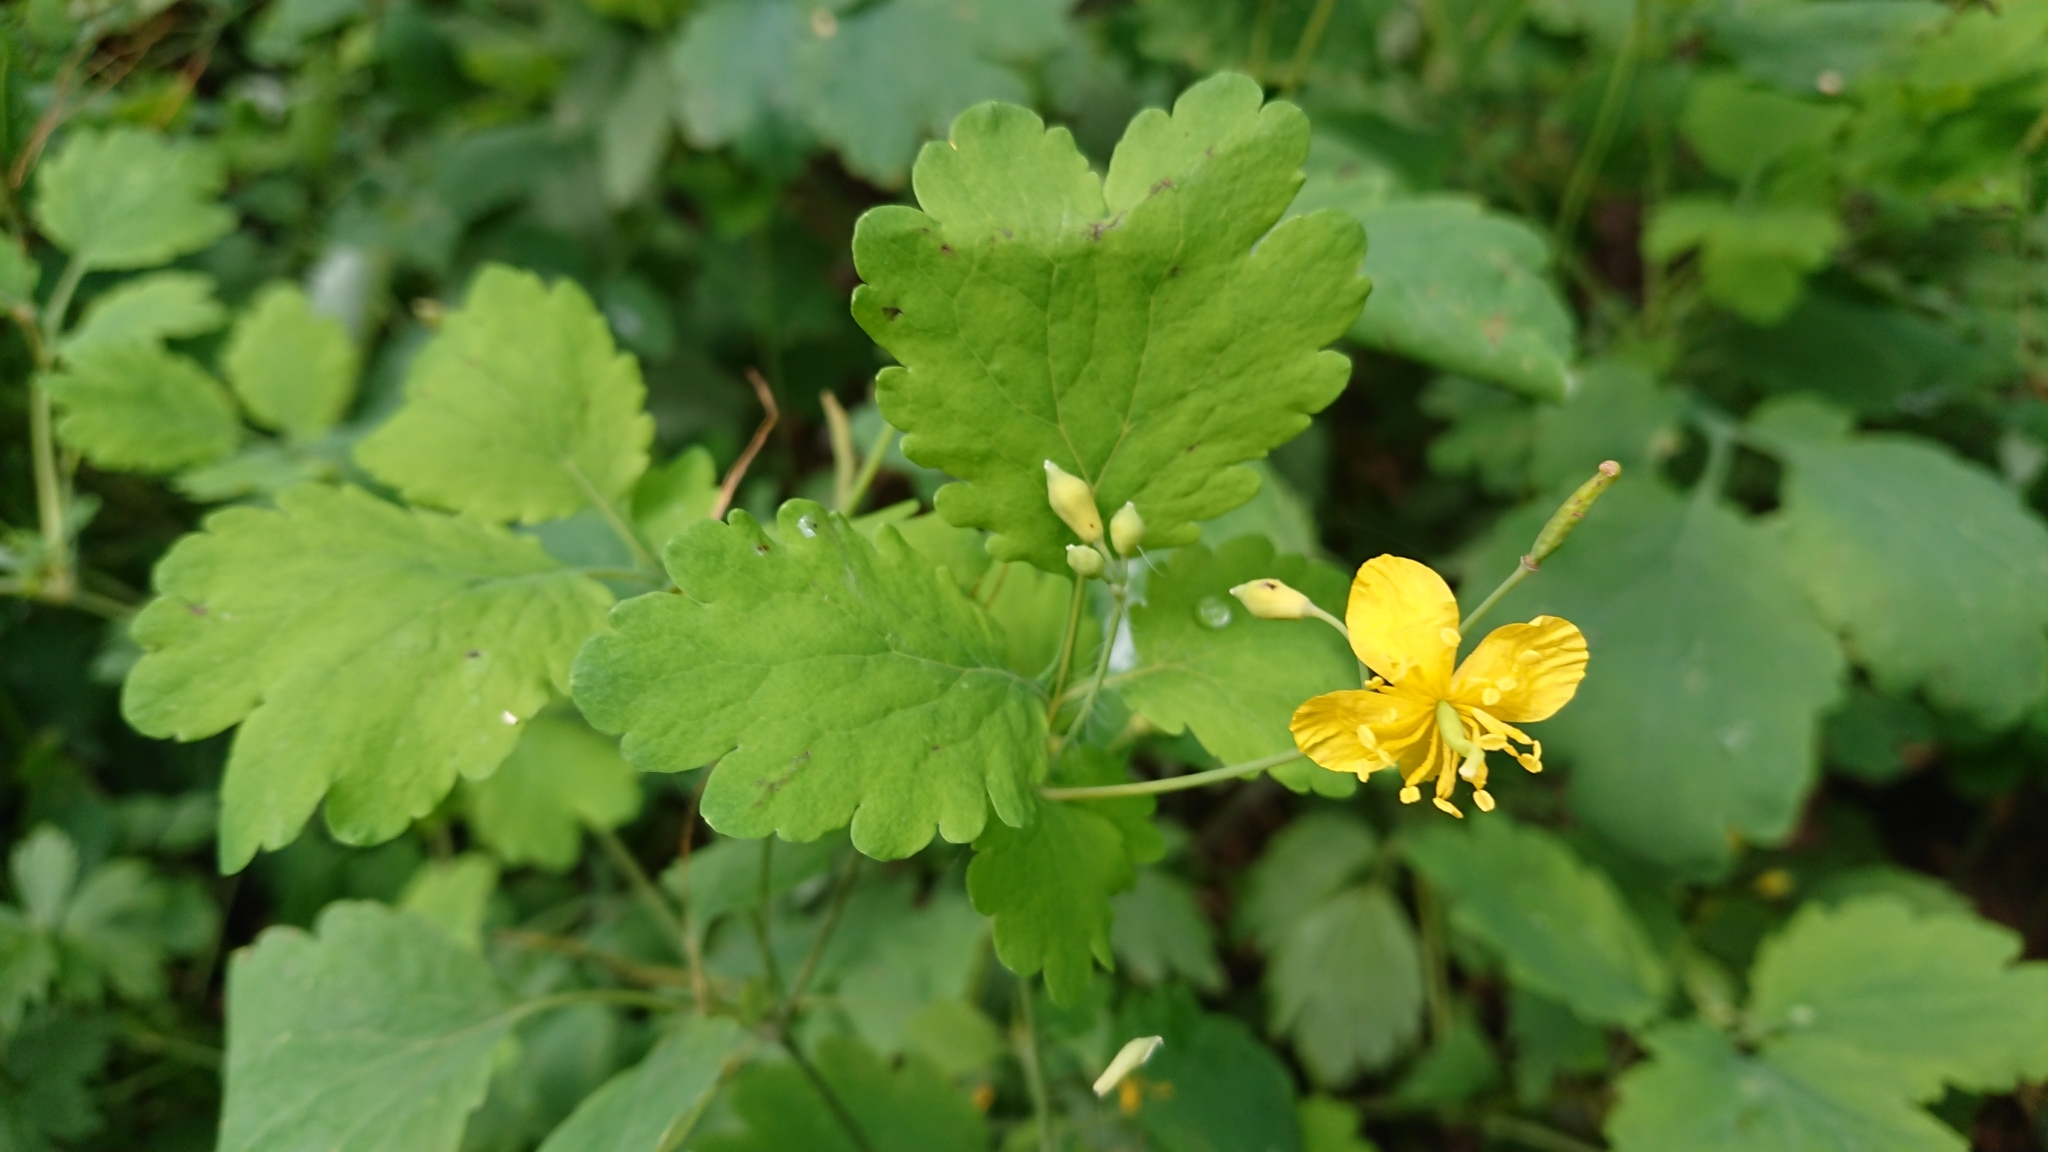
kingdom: Plantae
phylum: Tracheophyta
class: Magnoliopsida
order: Ranunculales
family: Papaveraceae
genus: Chelidonium
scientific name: Chelidonium majus
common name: Greater celandine
